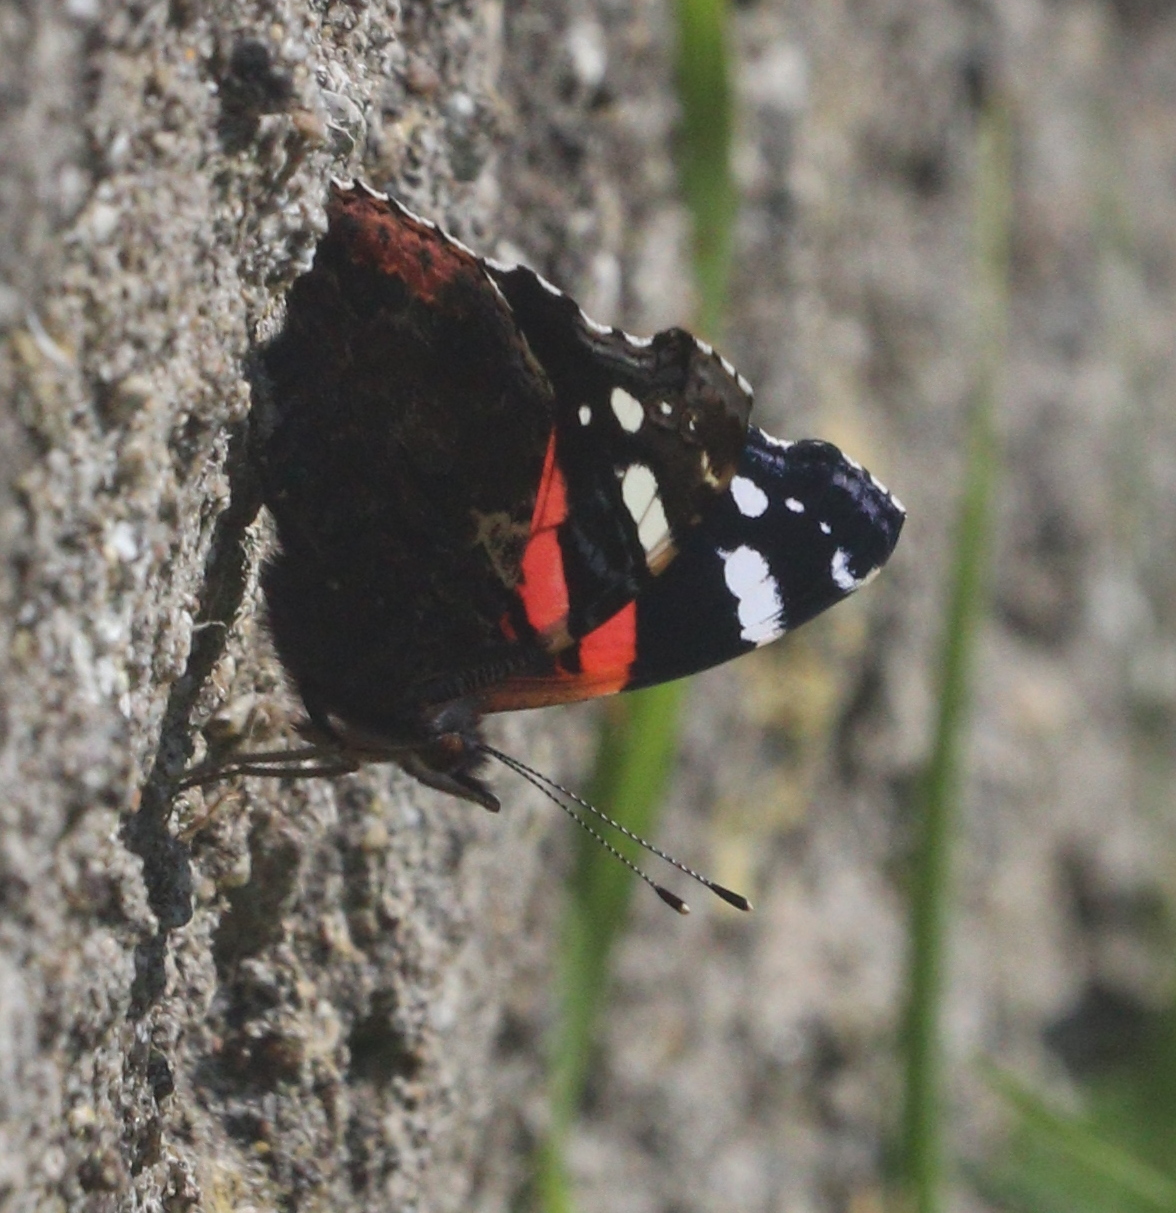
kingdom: Animalia
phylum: Arthropoda
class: Insecta
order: Lepidoptera
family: Nymphalidae
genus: Vanessa
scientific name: Vanessa atalanta
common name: Red admiral
